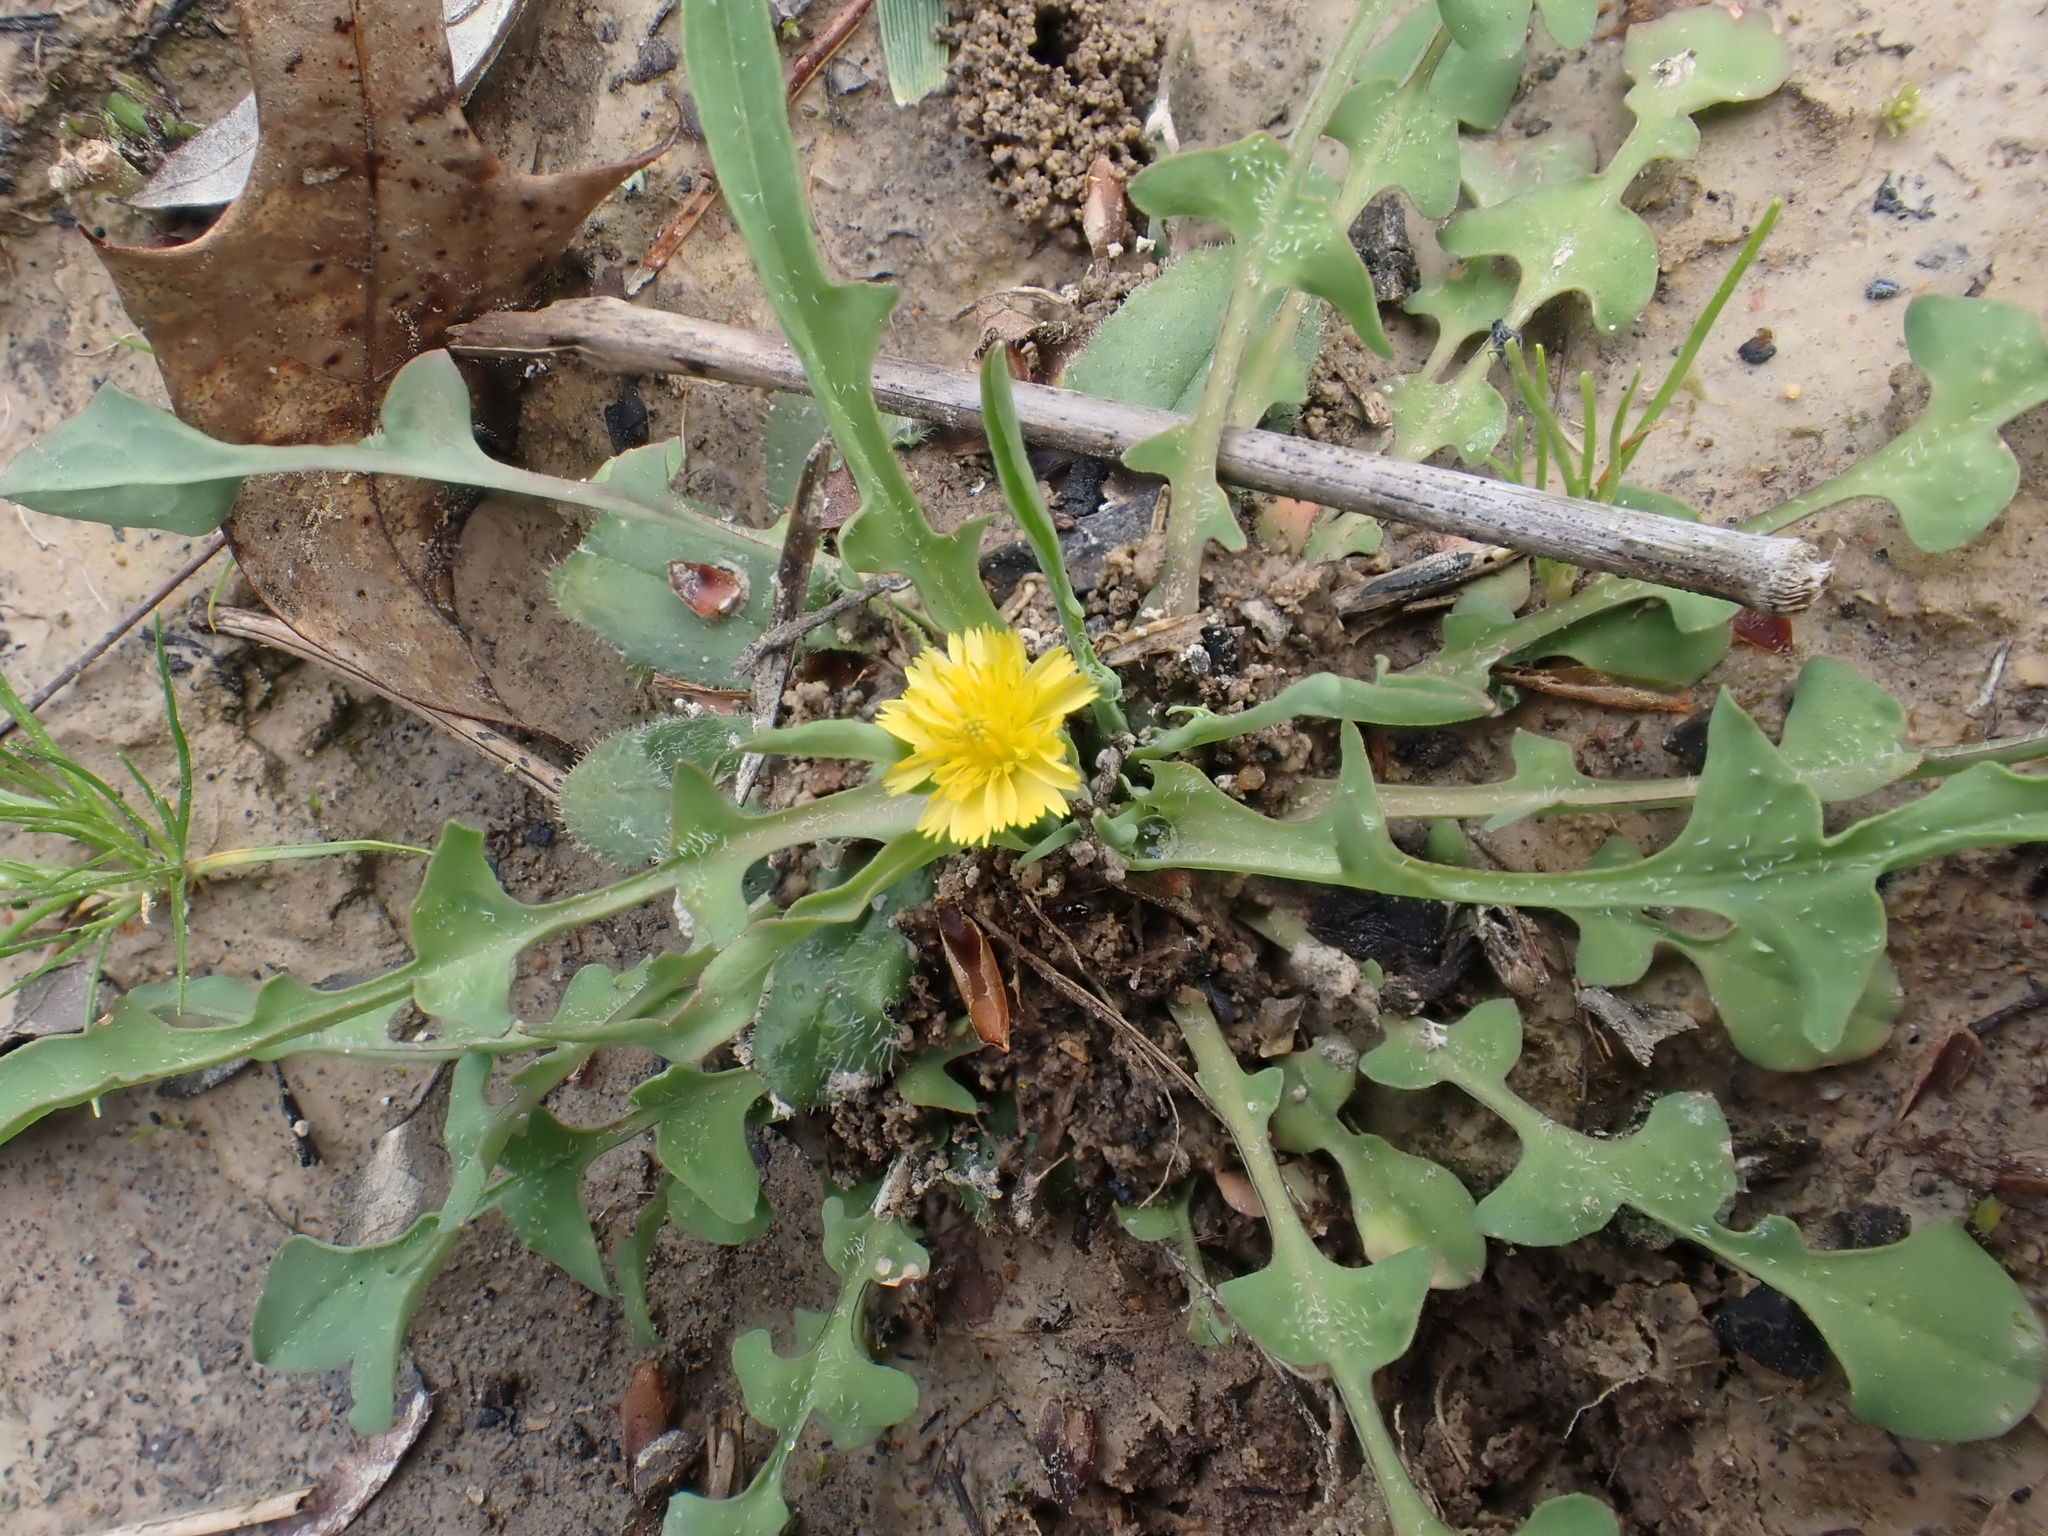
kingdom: Plantae
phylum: Tracheophyta
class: Magnoliopsida
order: Asterales
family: Asteraceae
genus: Krigia
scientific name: Krigia virginica
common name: Virginia dwarf-dandelion
